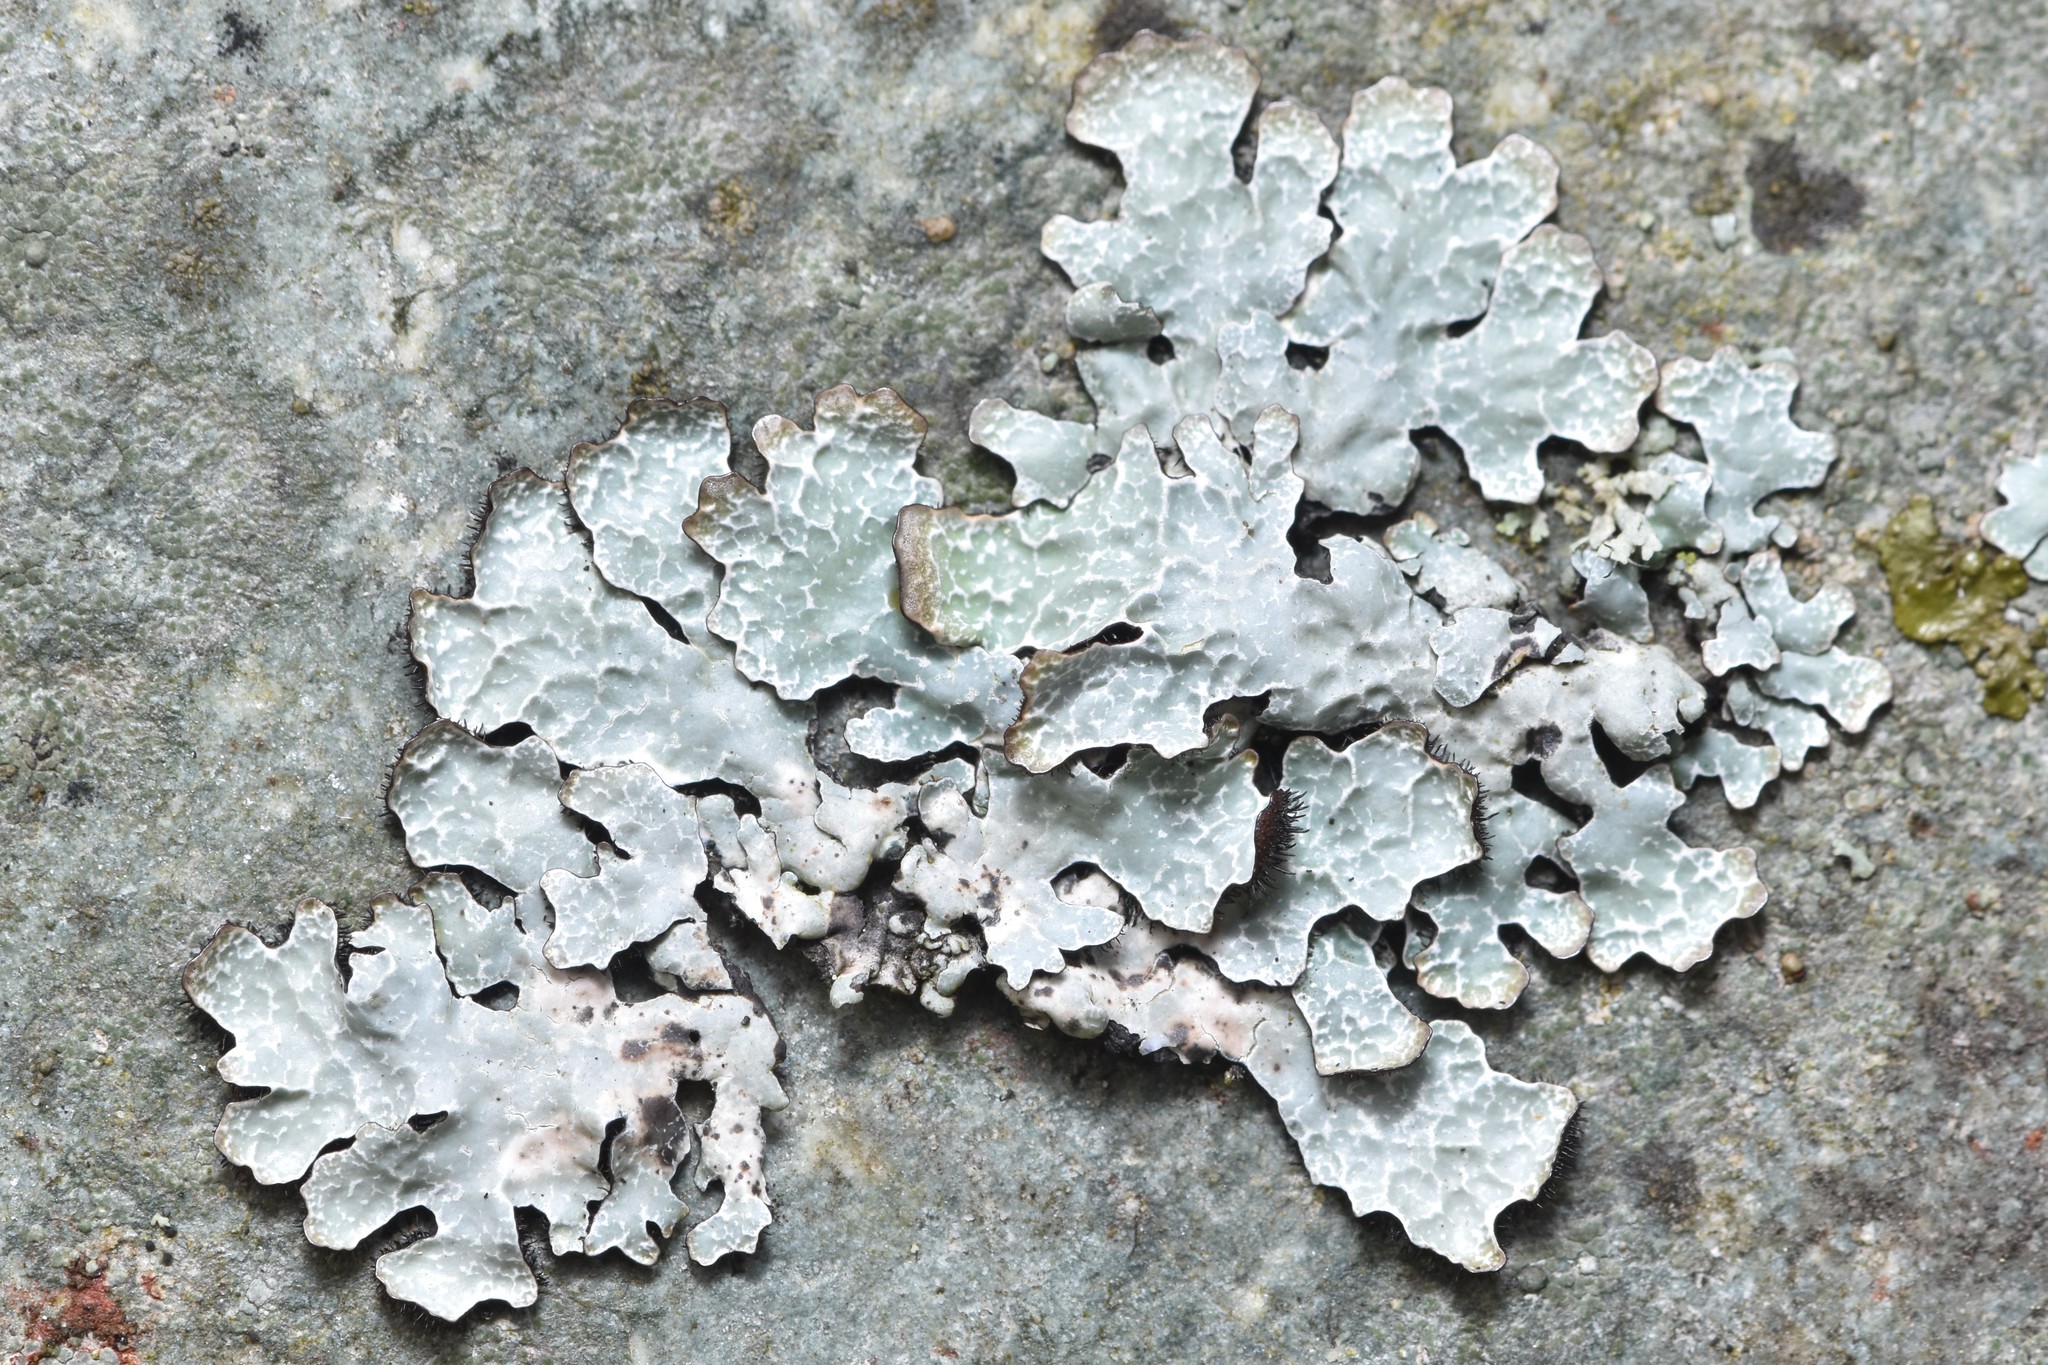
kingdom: Fungi
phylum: Ascomycota
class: Lecanoromycetes
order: Lecanorales
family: Parmeliaceae
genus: Parmelia
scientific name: Parmelia sulcata
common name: Netted shield lichen
